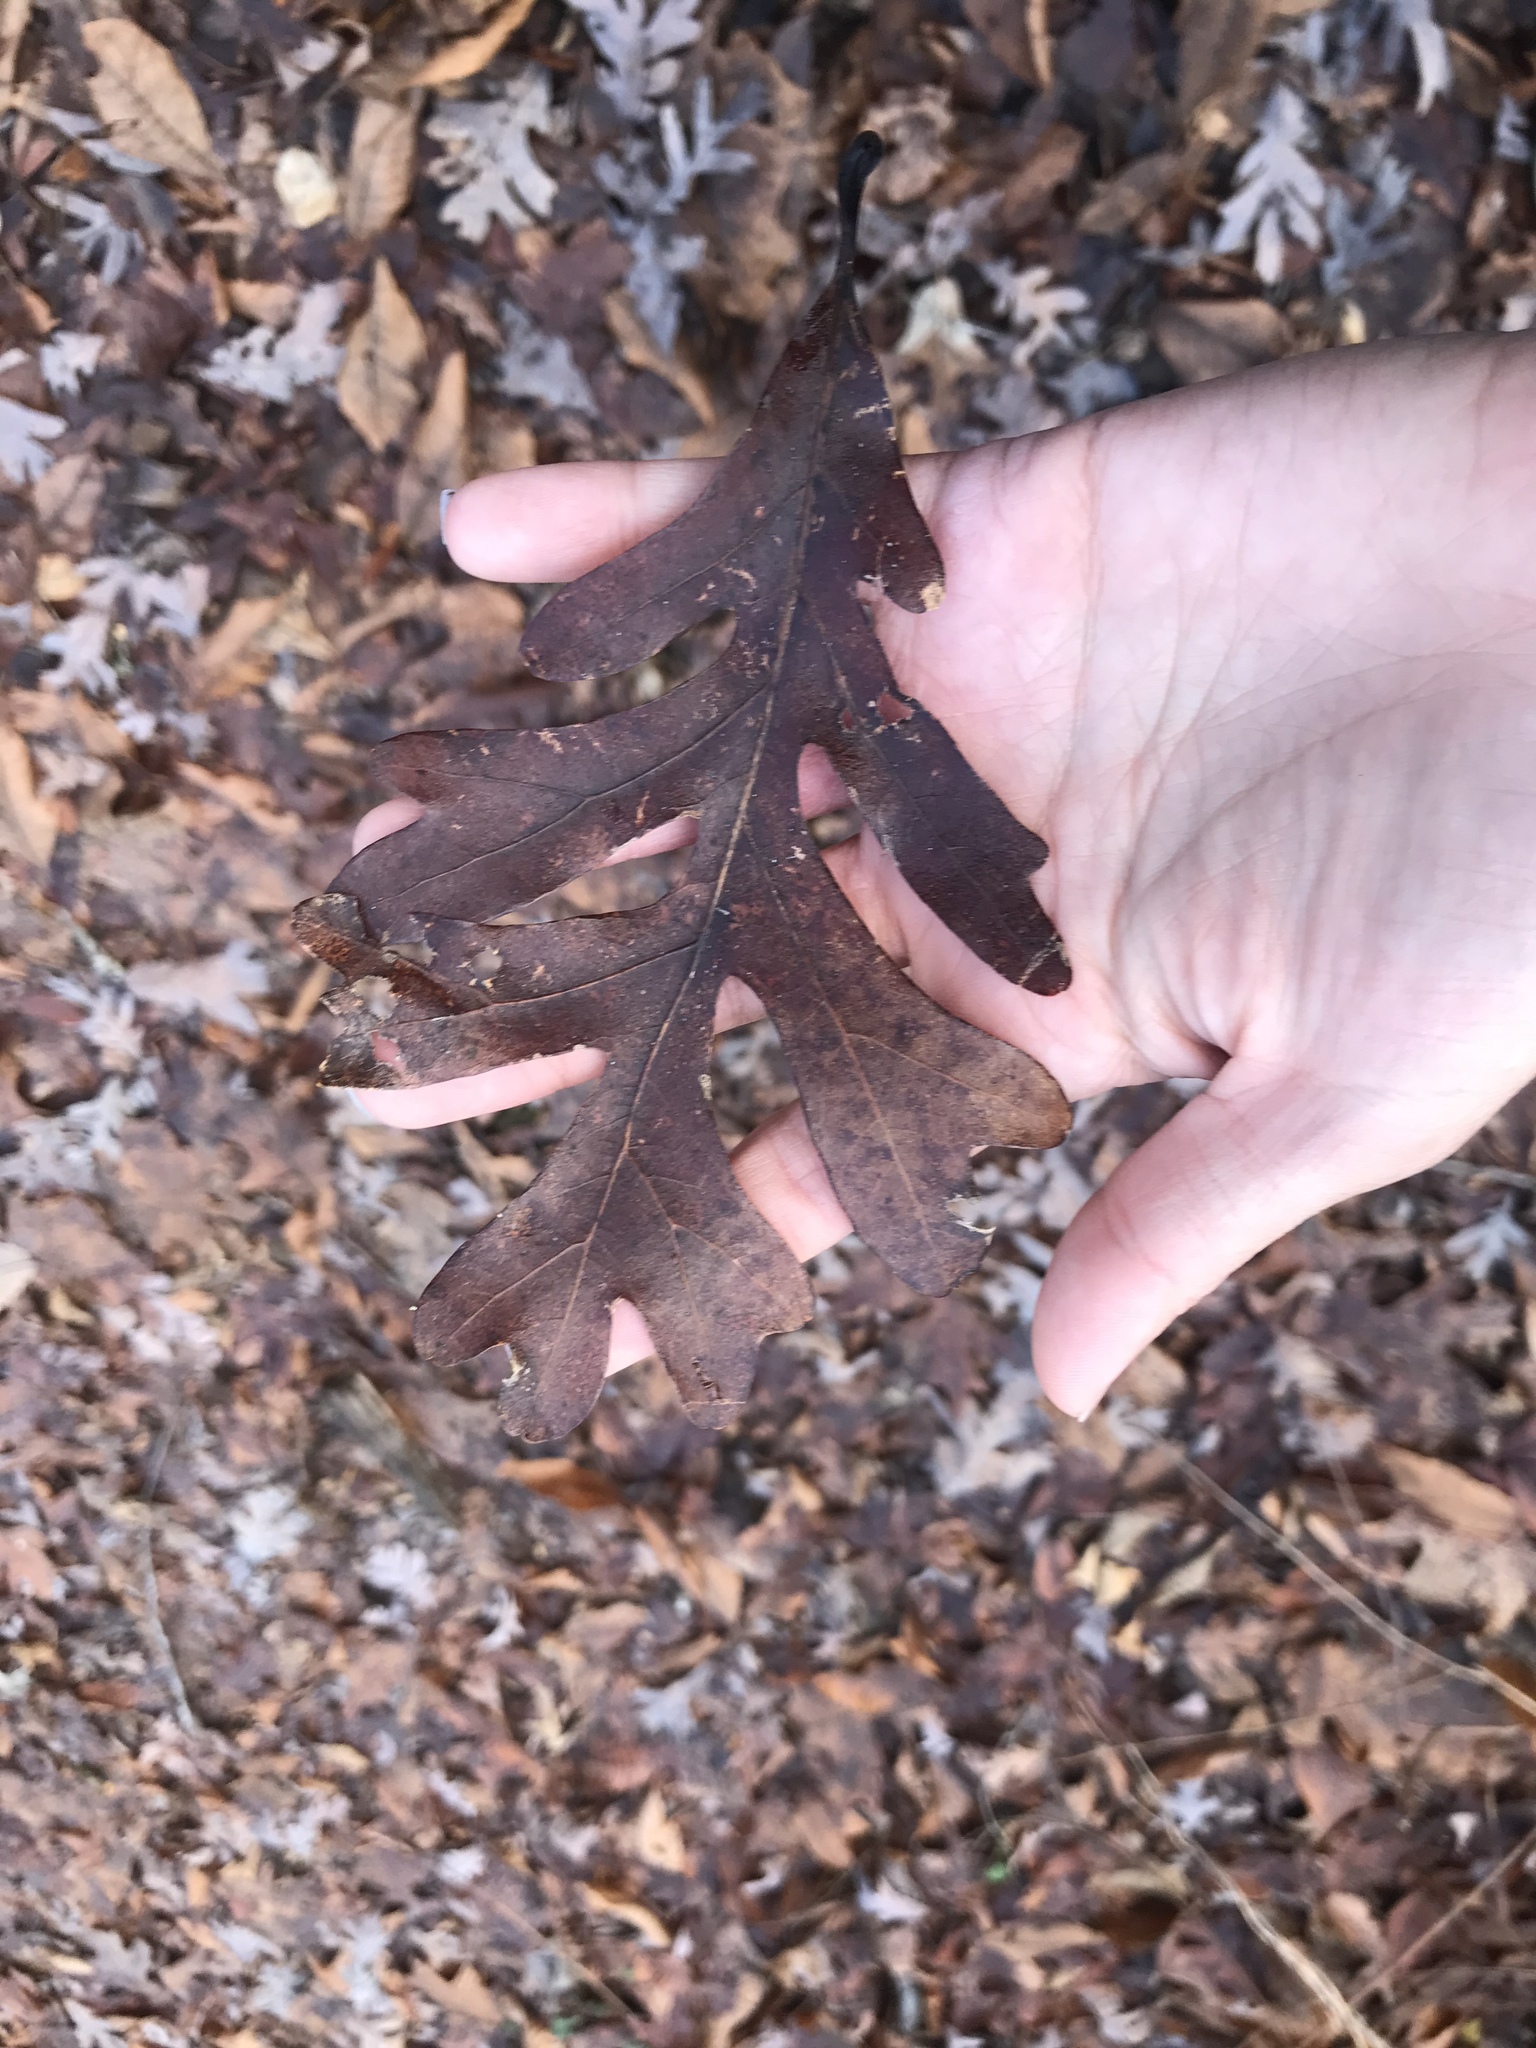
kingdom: Plantae
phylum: Tracheophyta
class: Magnoliopsida
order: Fagales
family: Fagaceae
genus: Quercus
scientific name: Quercus alba
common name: White oak
